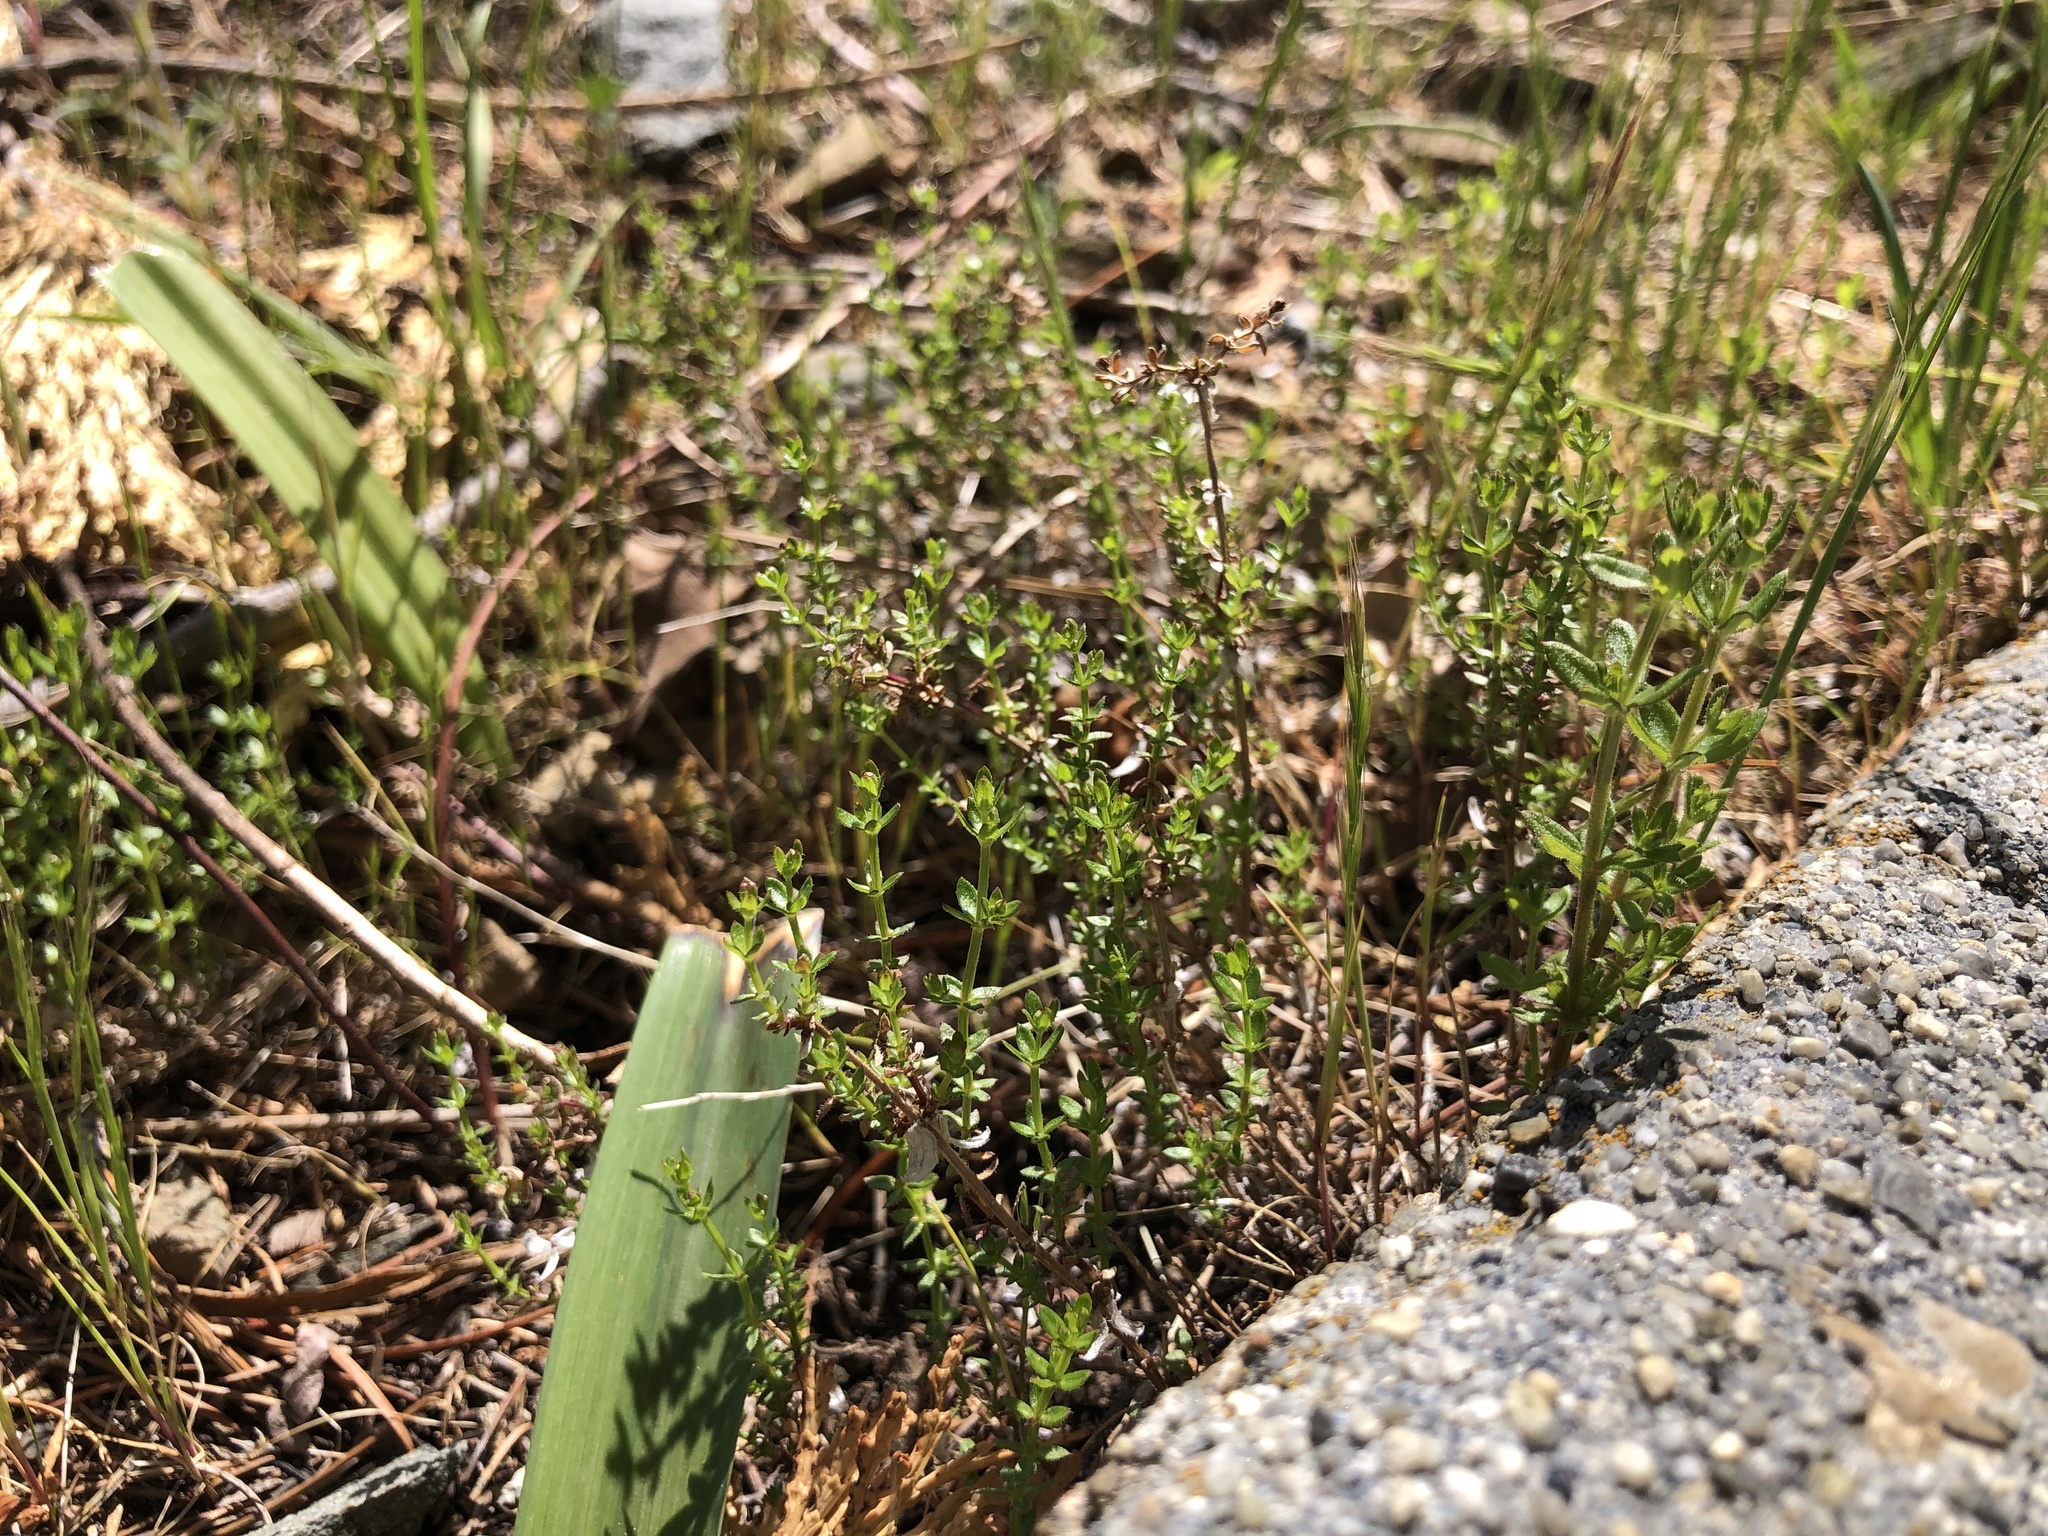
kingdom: Plantae
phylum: Tracheophyta
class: Magnoliopsida
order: Gentianales
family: Rubiaceae
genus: Galium
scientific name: Galium porrigens
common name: Climbing bedstraw
